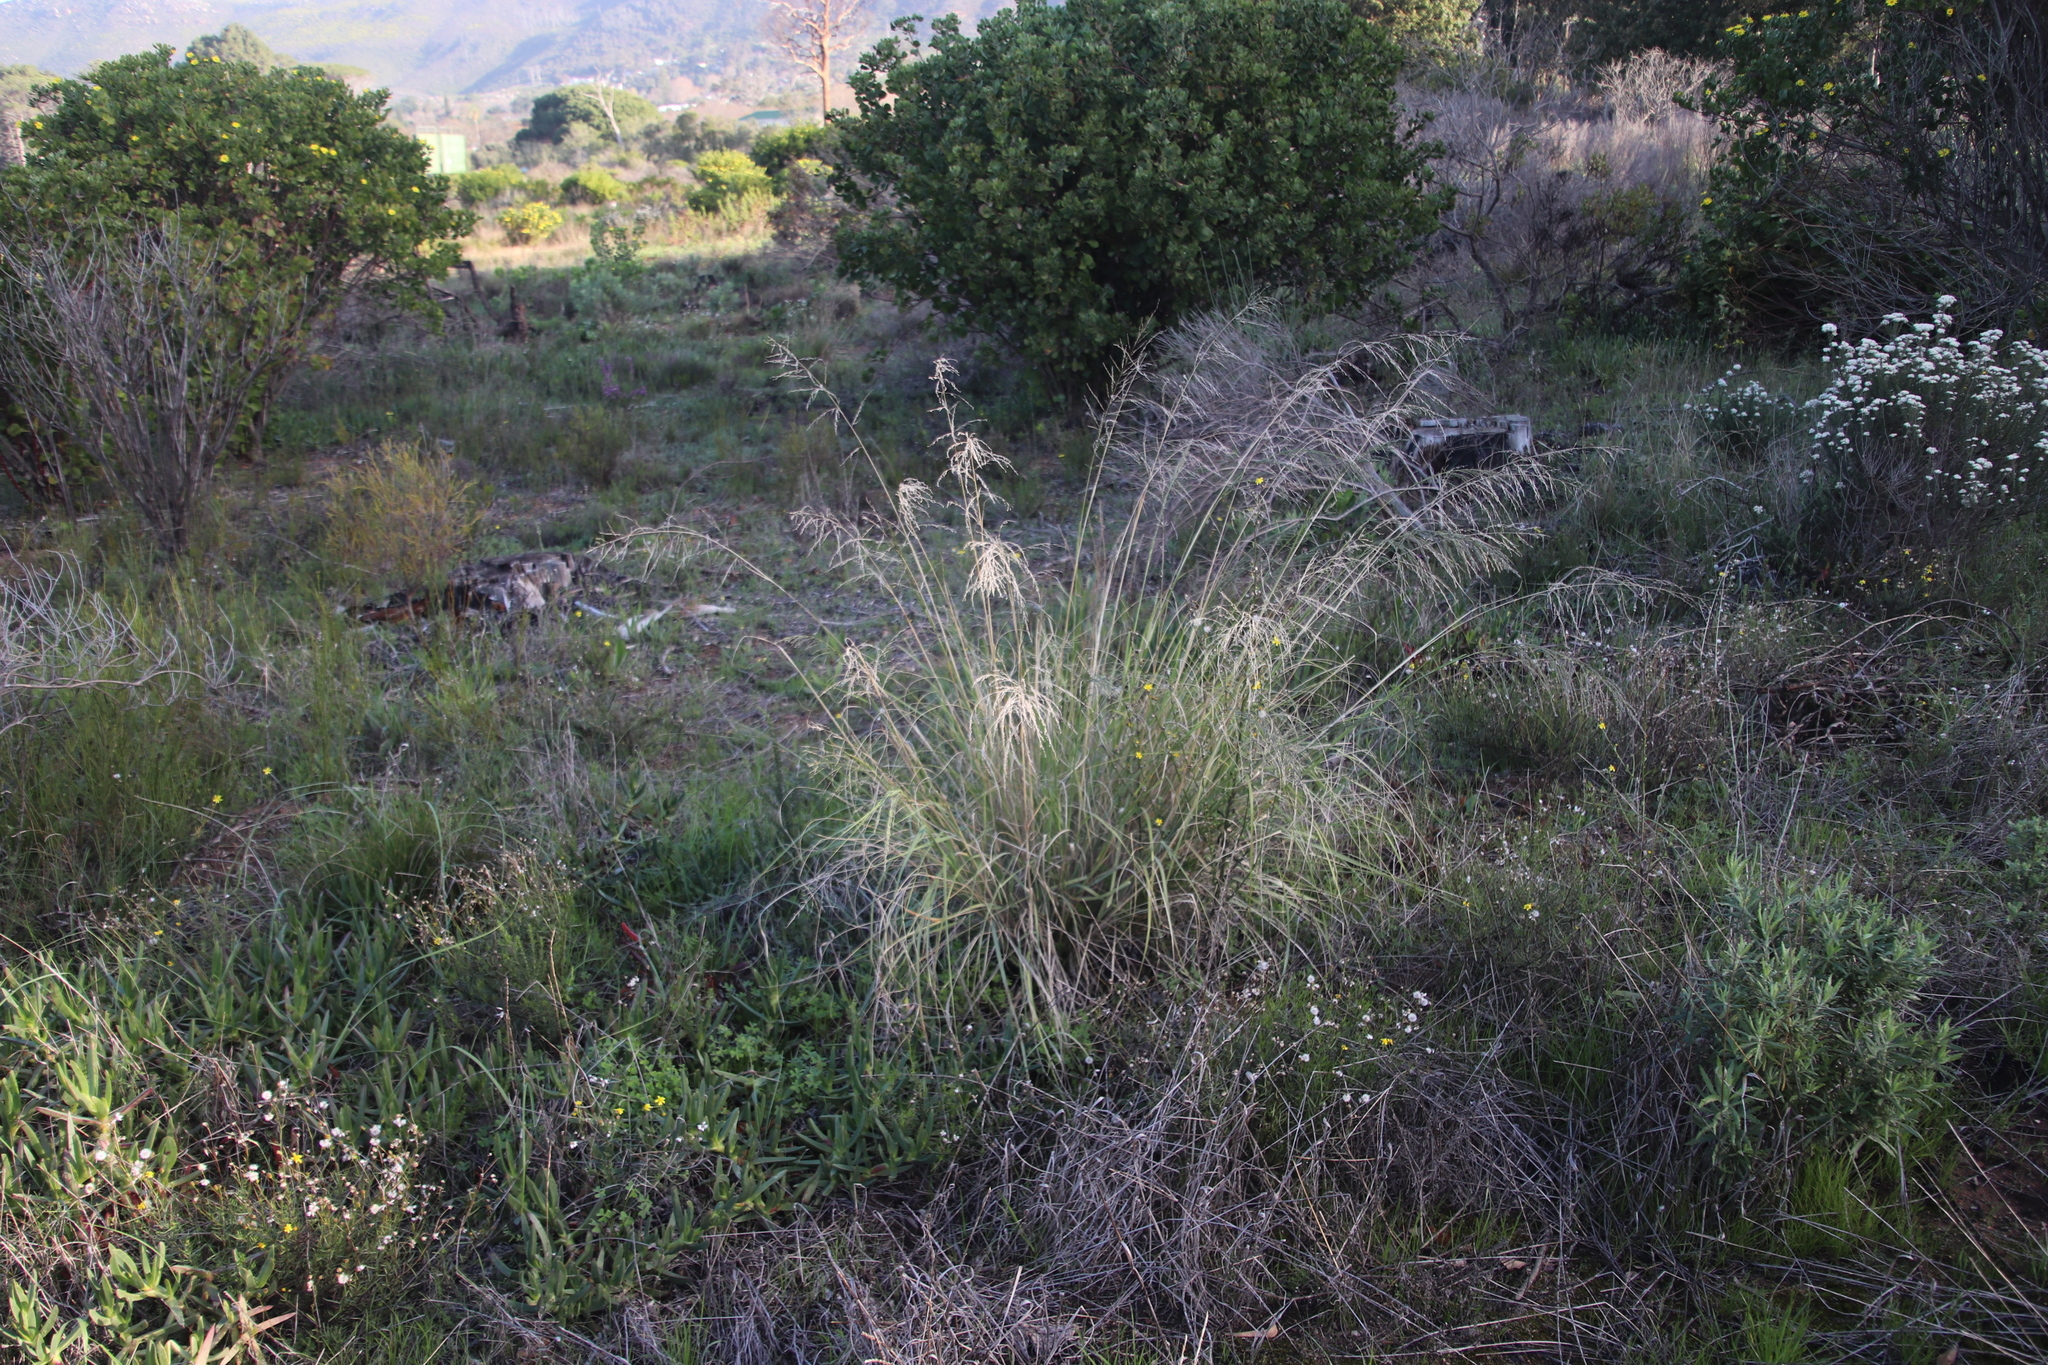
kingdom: Plantae
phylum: Tracheophyta
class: Liliopsida
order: Poales
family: Poaceae
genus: Eragrostis
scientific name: Eragrostis curvula
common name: African love-grass
